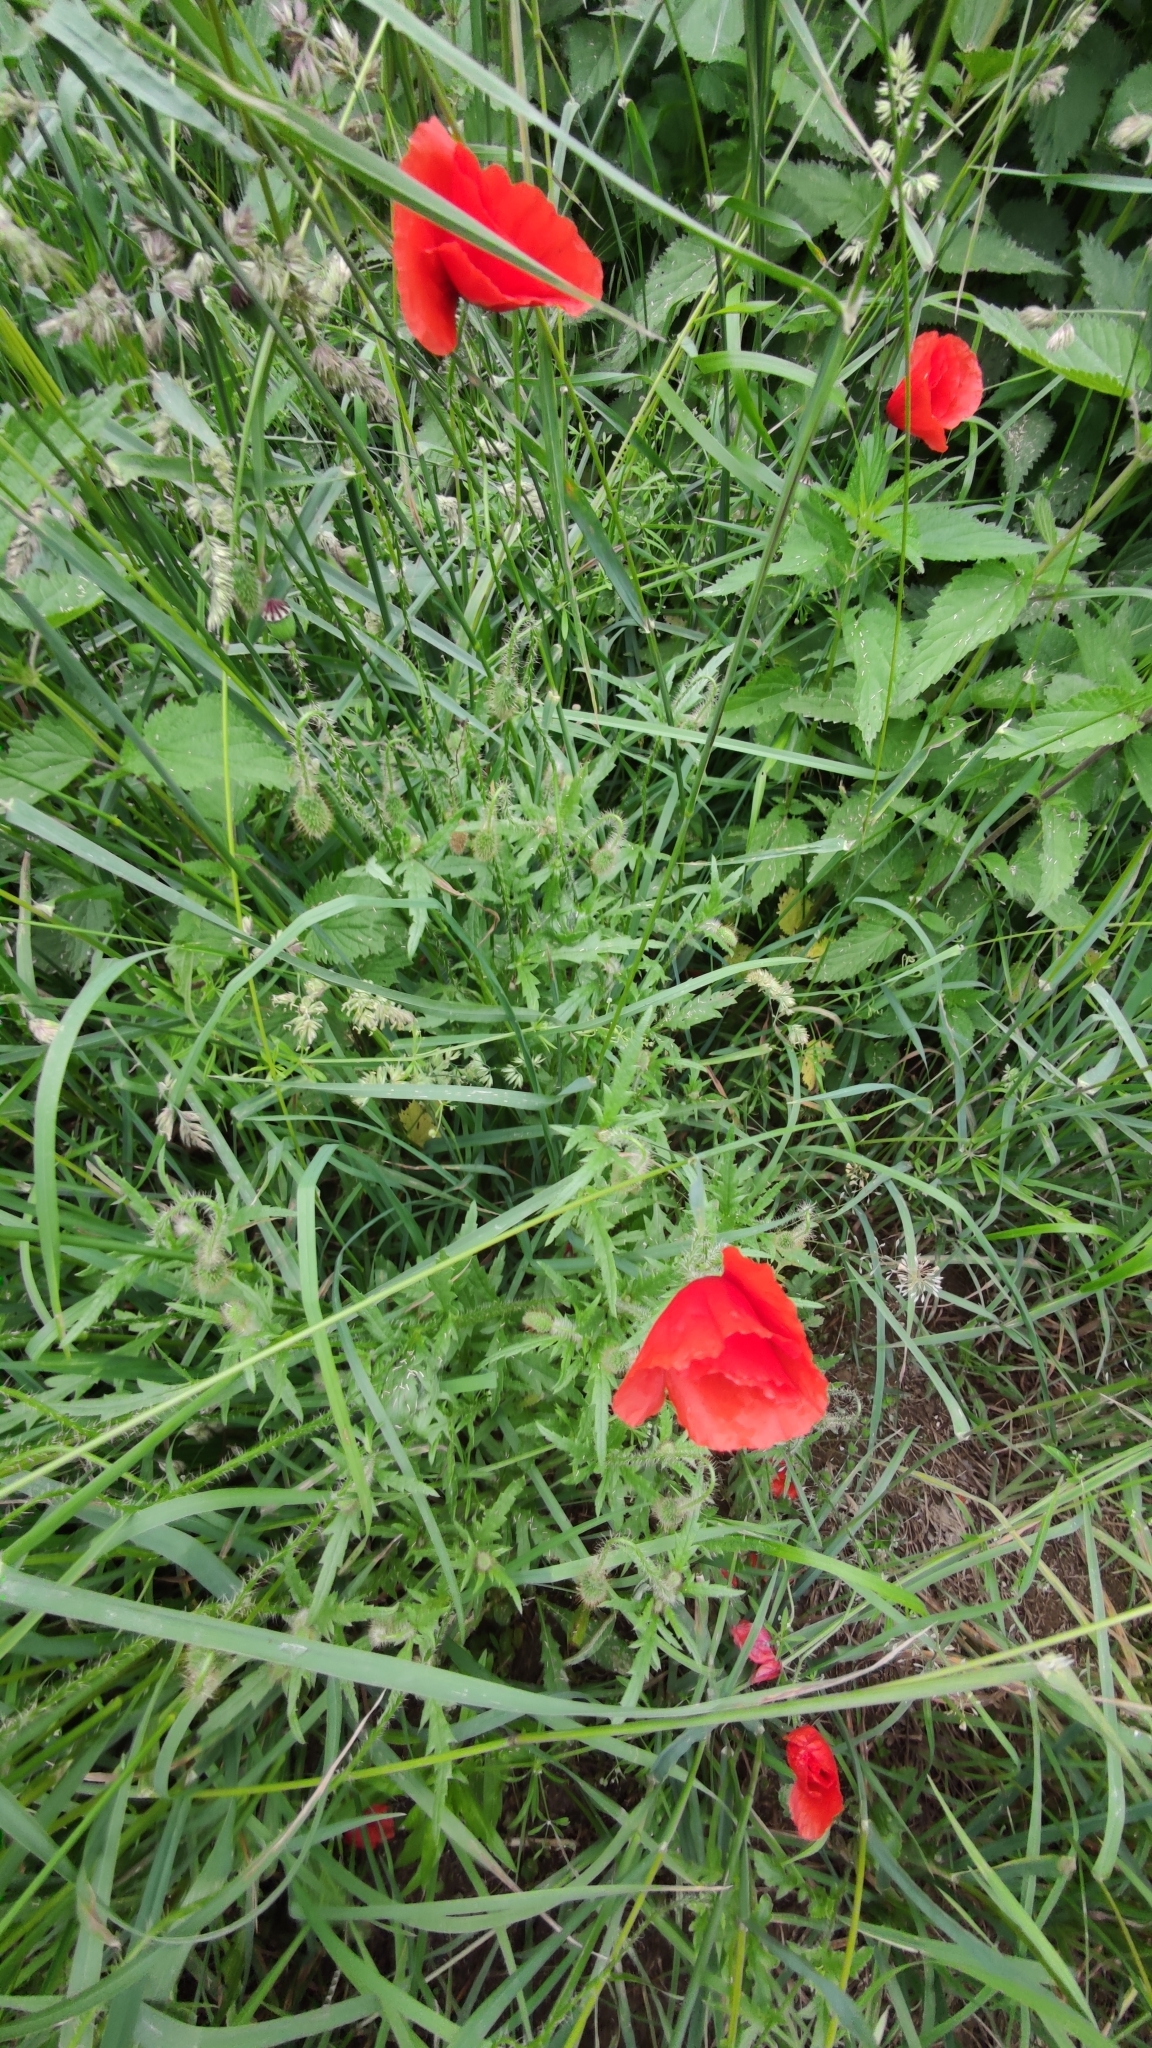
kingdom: Plantae
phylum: Tracheophyta
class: Magnoliopsida
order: Ranunculales
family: Papaveraceae
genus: Papaver
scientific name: Papaver rhoeas
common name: Corn poppy
